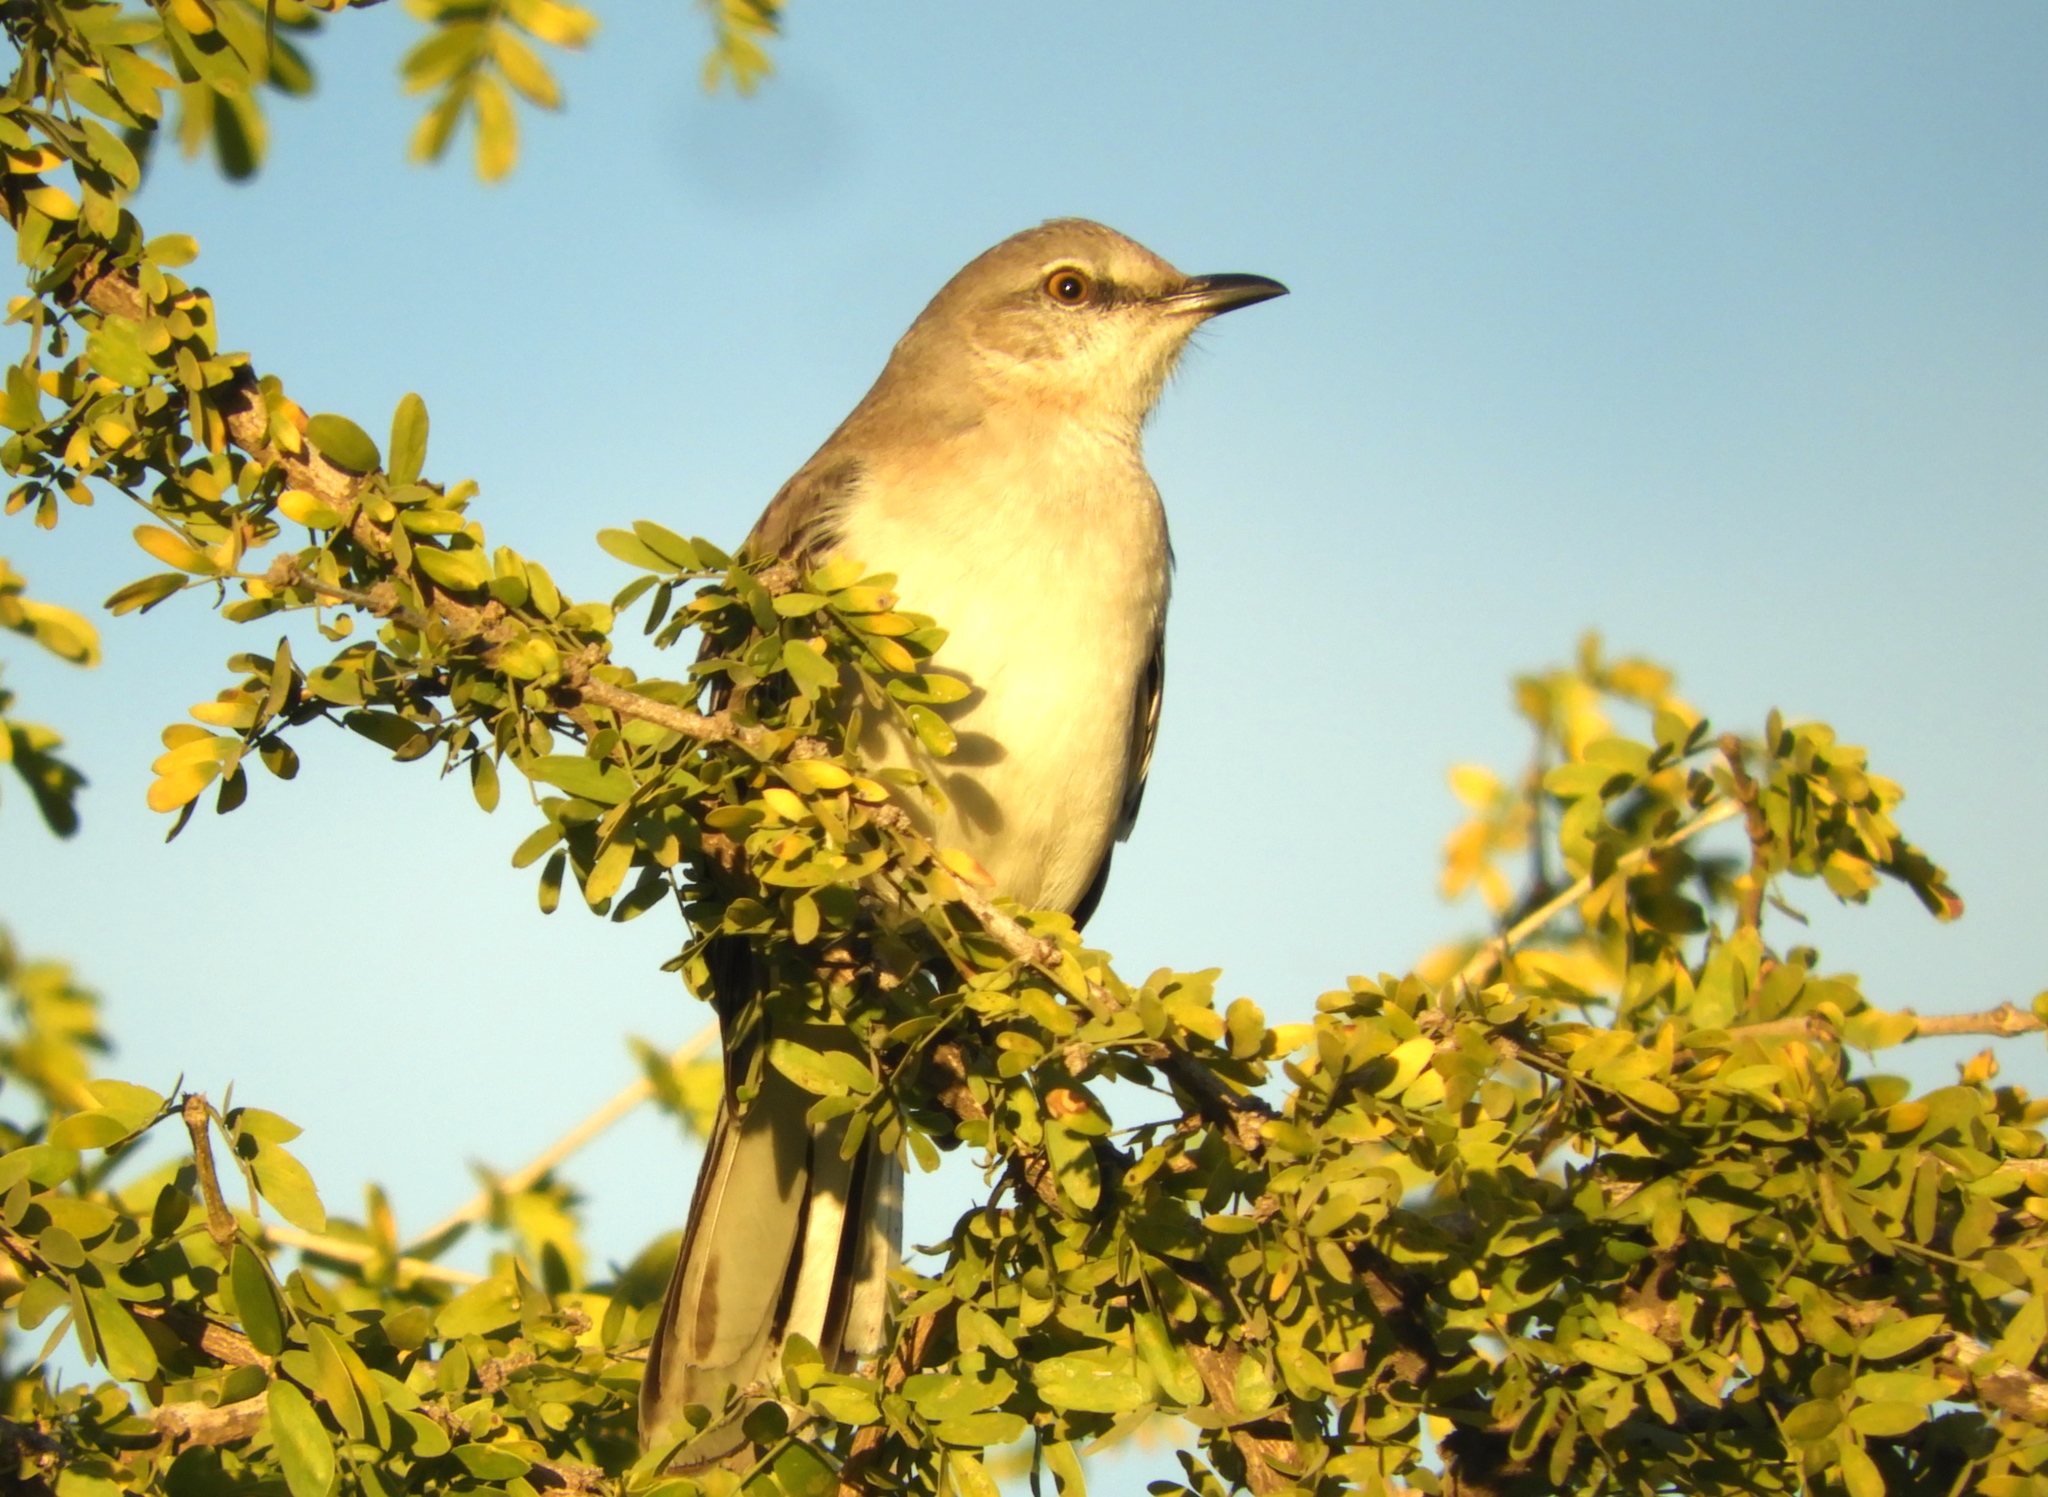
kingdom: Animalia
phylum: Chordata
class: Aves
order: Passeriformes
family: Mimidae
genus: Mimus
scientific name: Mimus polyglottos
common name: Northern mockingbird
